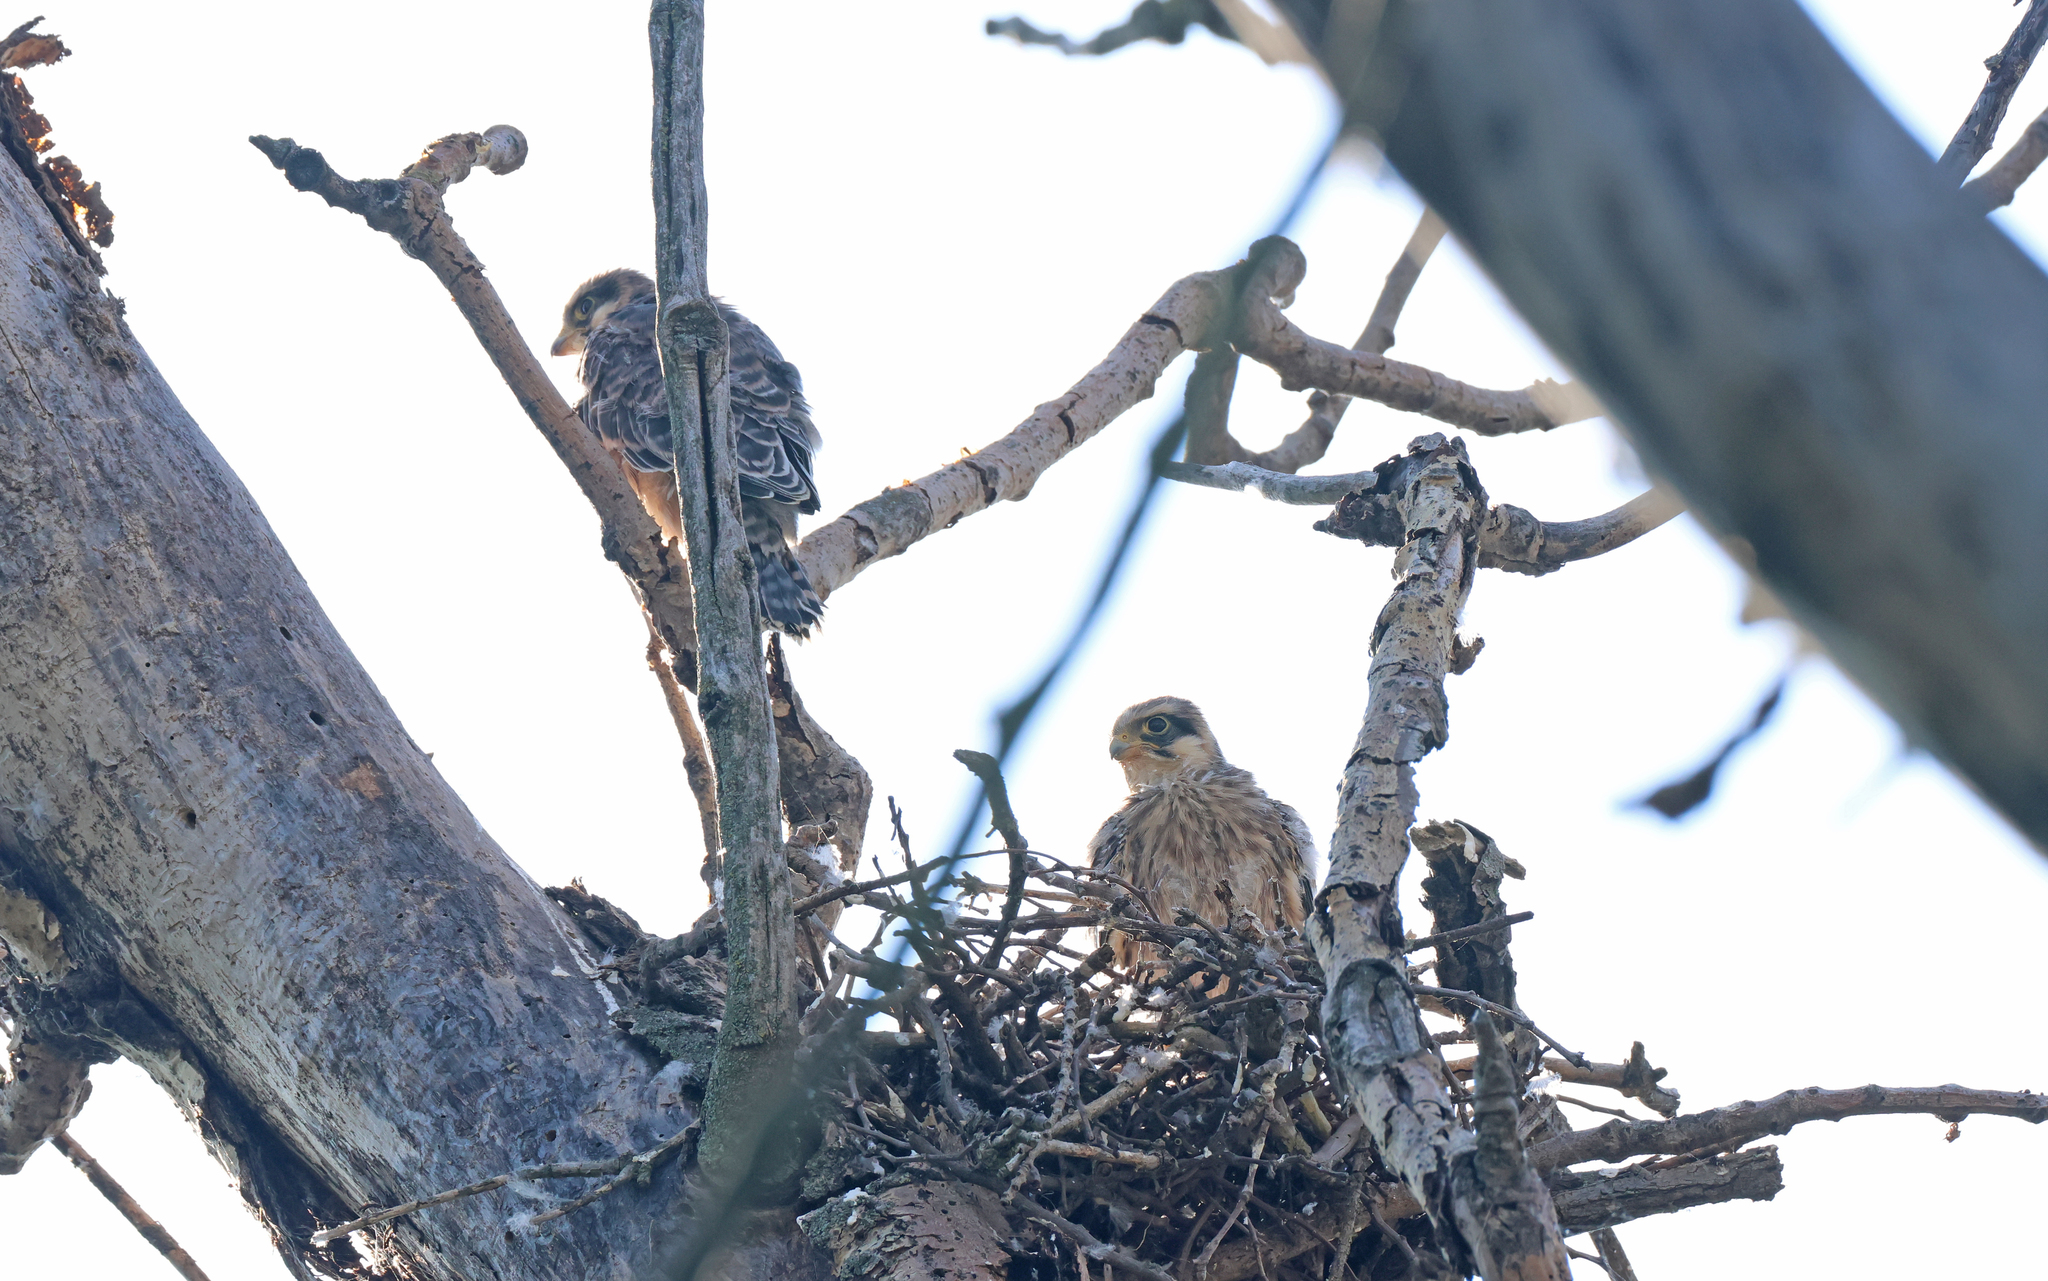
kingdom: Animalia
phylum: Chordata
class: Aves
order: Falconiformes
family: Falconidae
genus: Falco
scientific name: Falco vespertinus
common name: Red-footed falcon
